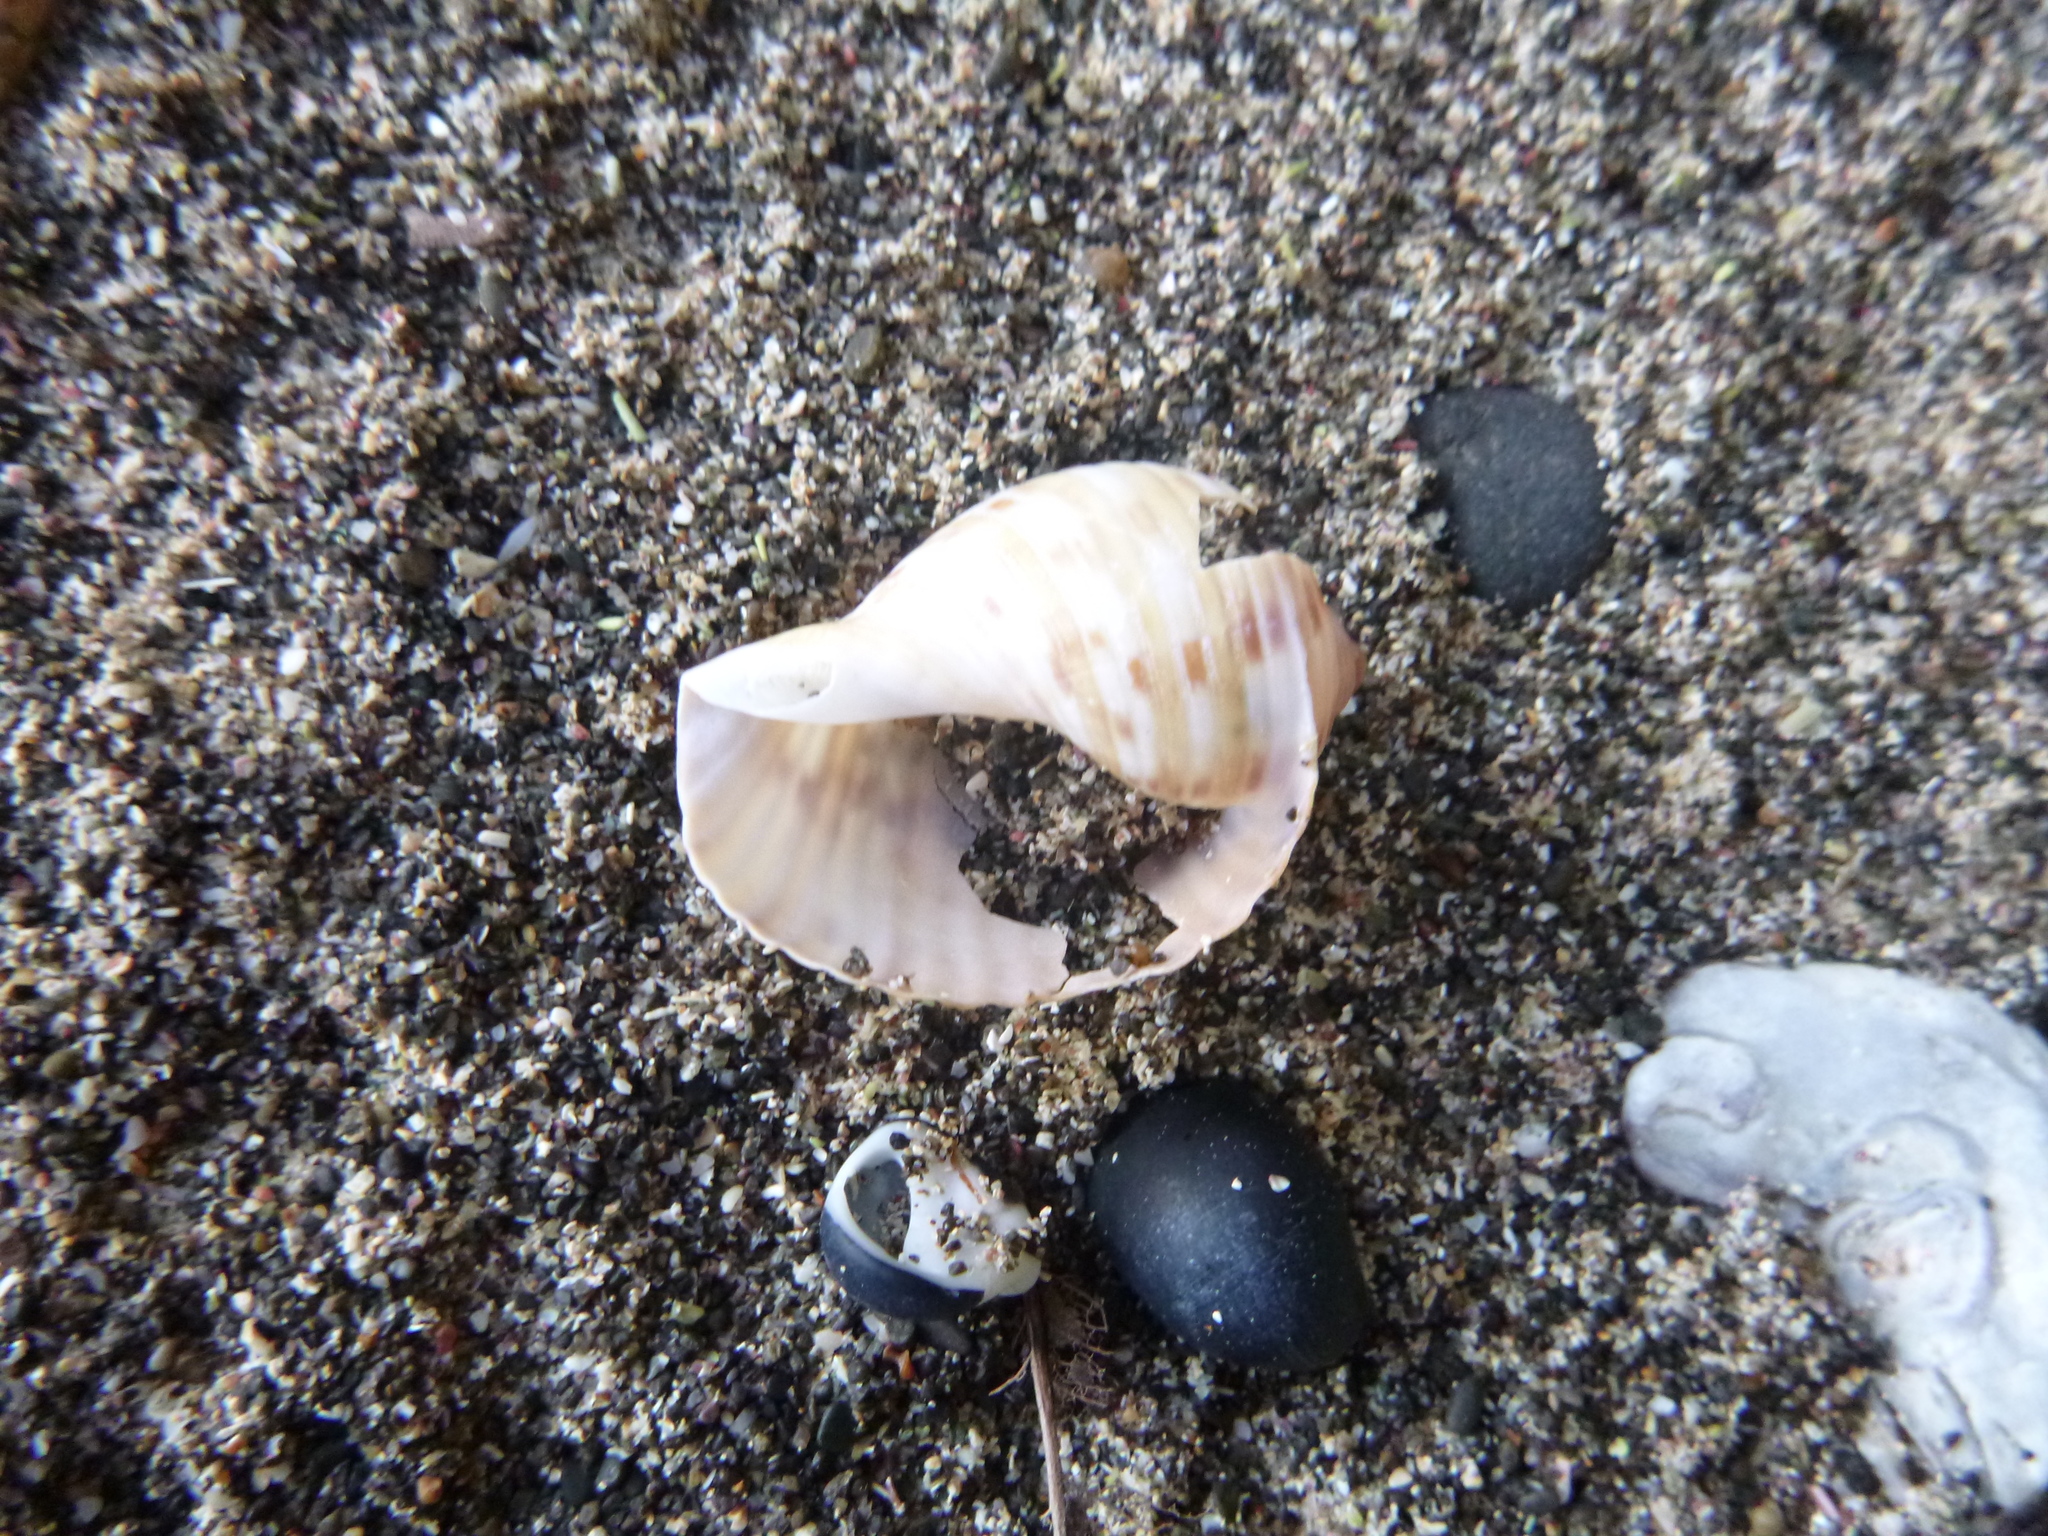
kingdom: Animalia
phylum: Mollusca
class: Gastropoda
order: Littorinimorpha
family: Tonnidae
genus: Tonna
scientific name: Tonna tankervillii
